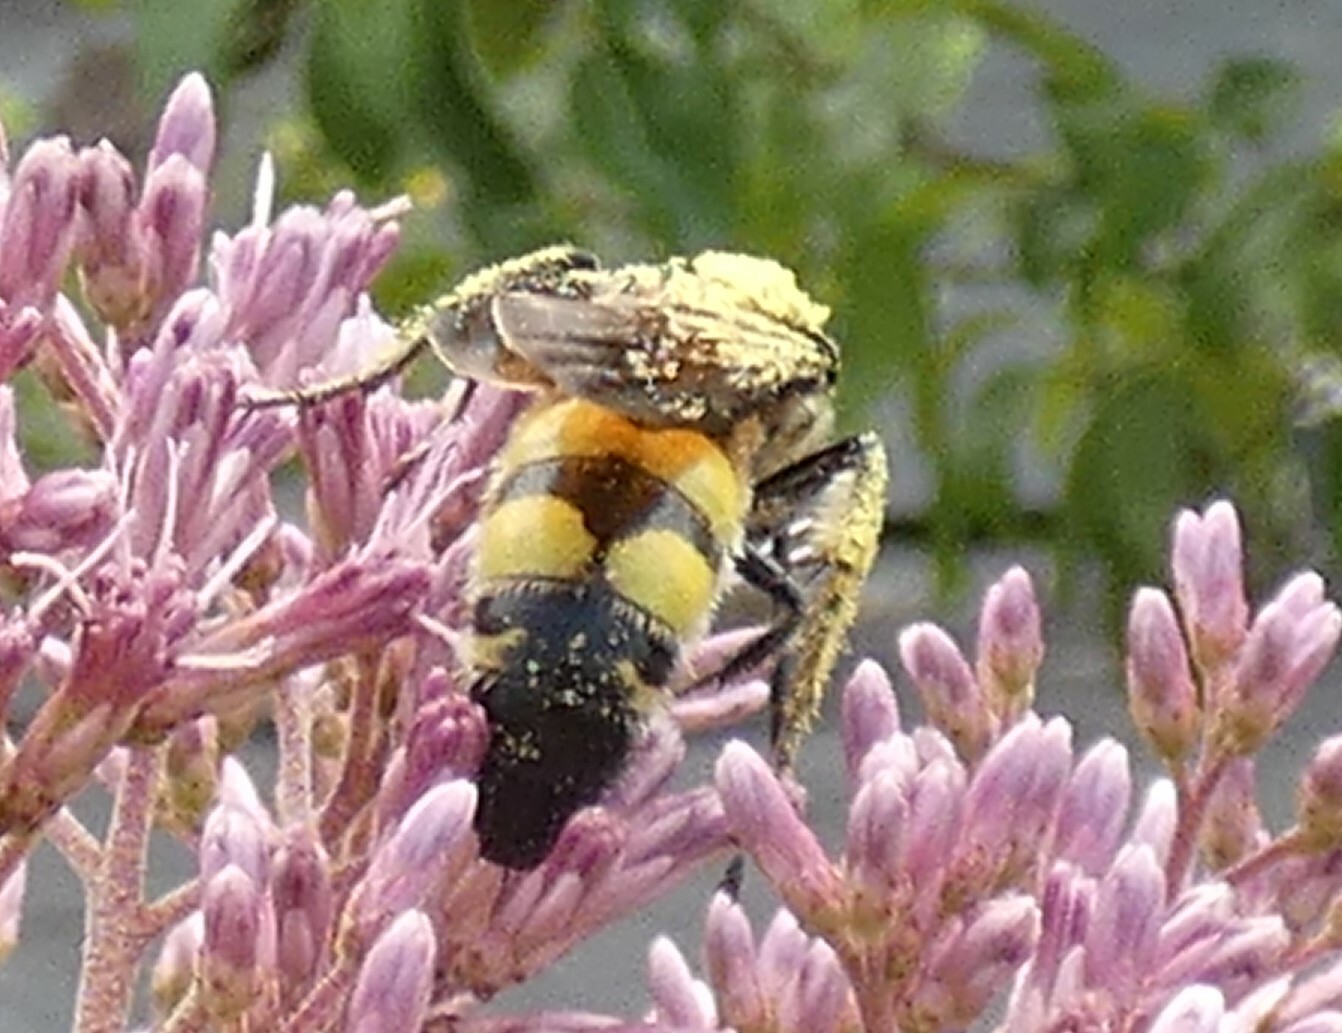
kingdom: Animalia
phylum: Arthropoda
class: Insecta
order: Hymenoptera
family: Scoliidae
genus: Pygodasis
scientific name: Pygodasis
